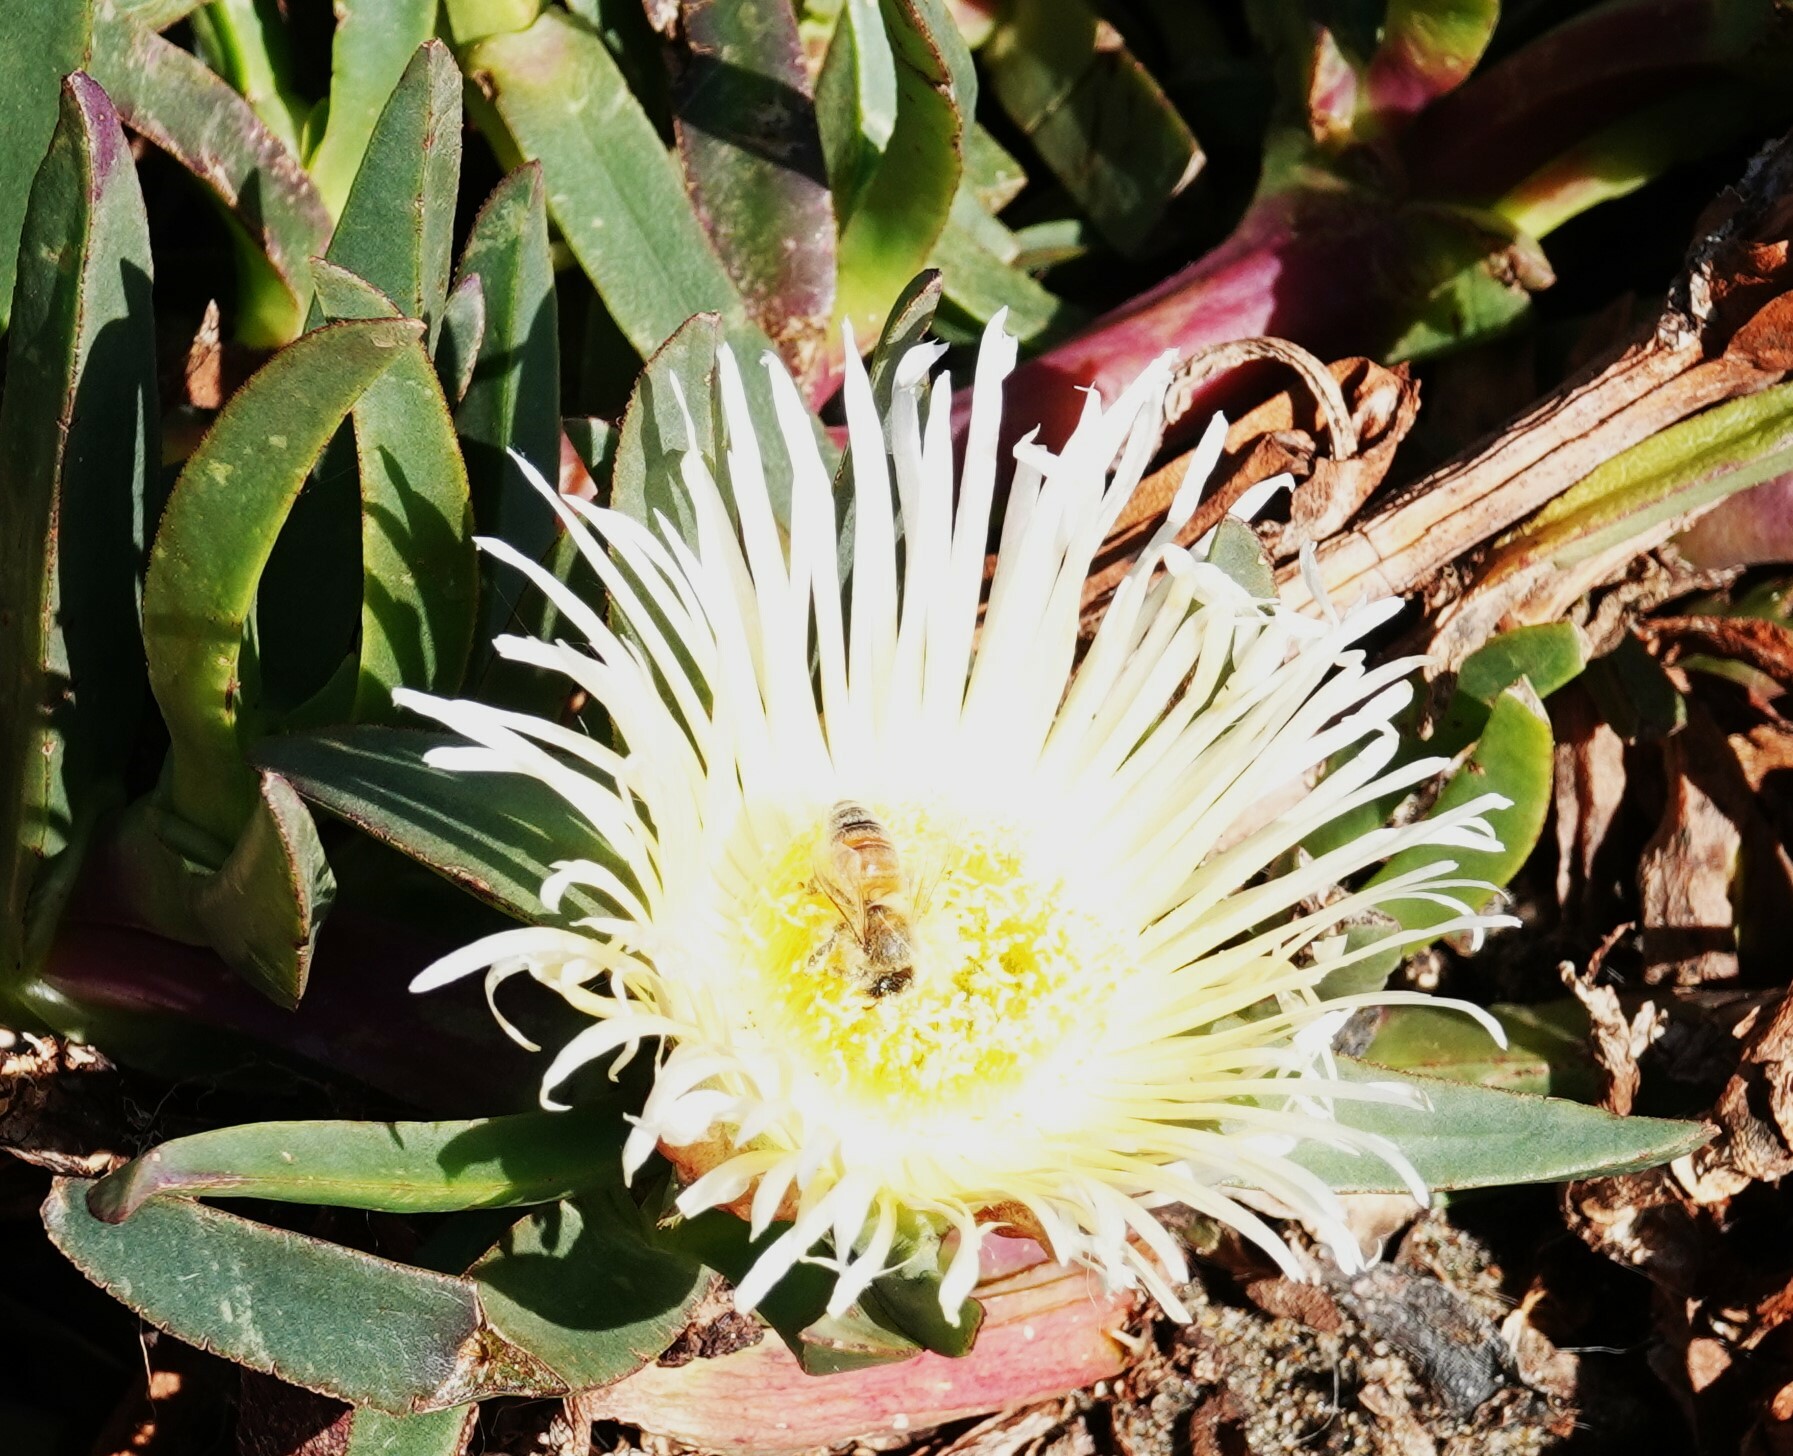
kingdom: Plantae
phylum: Tracheophyta
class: Magnoliopsida
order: Caryophyllales
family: Aizoaceae
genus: Carpobrotus
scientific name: Carpobrotus edulis
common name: Hottentot-fig
